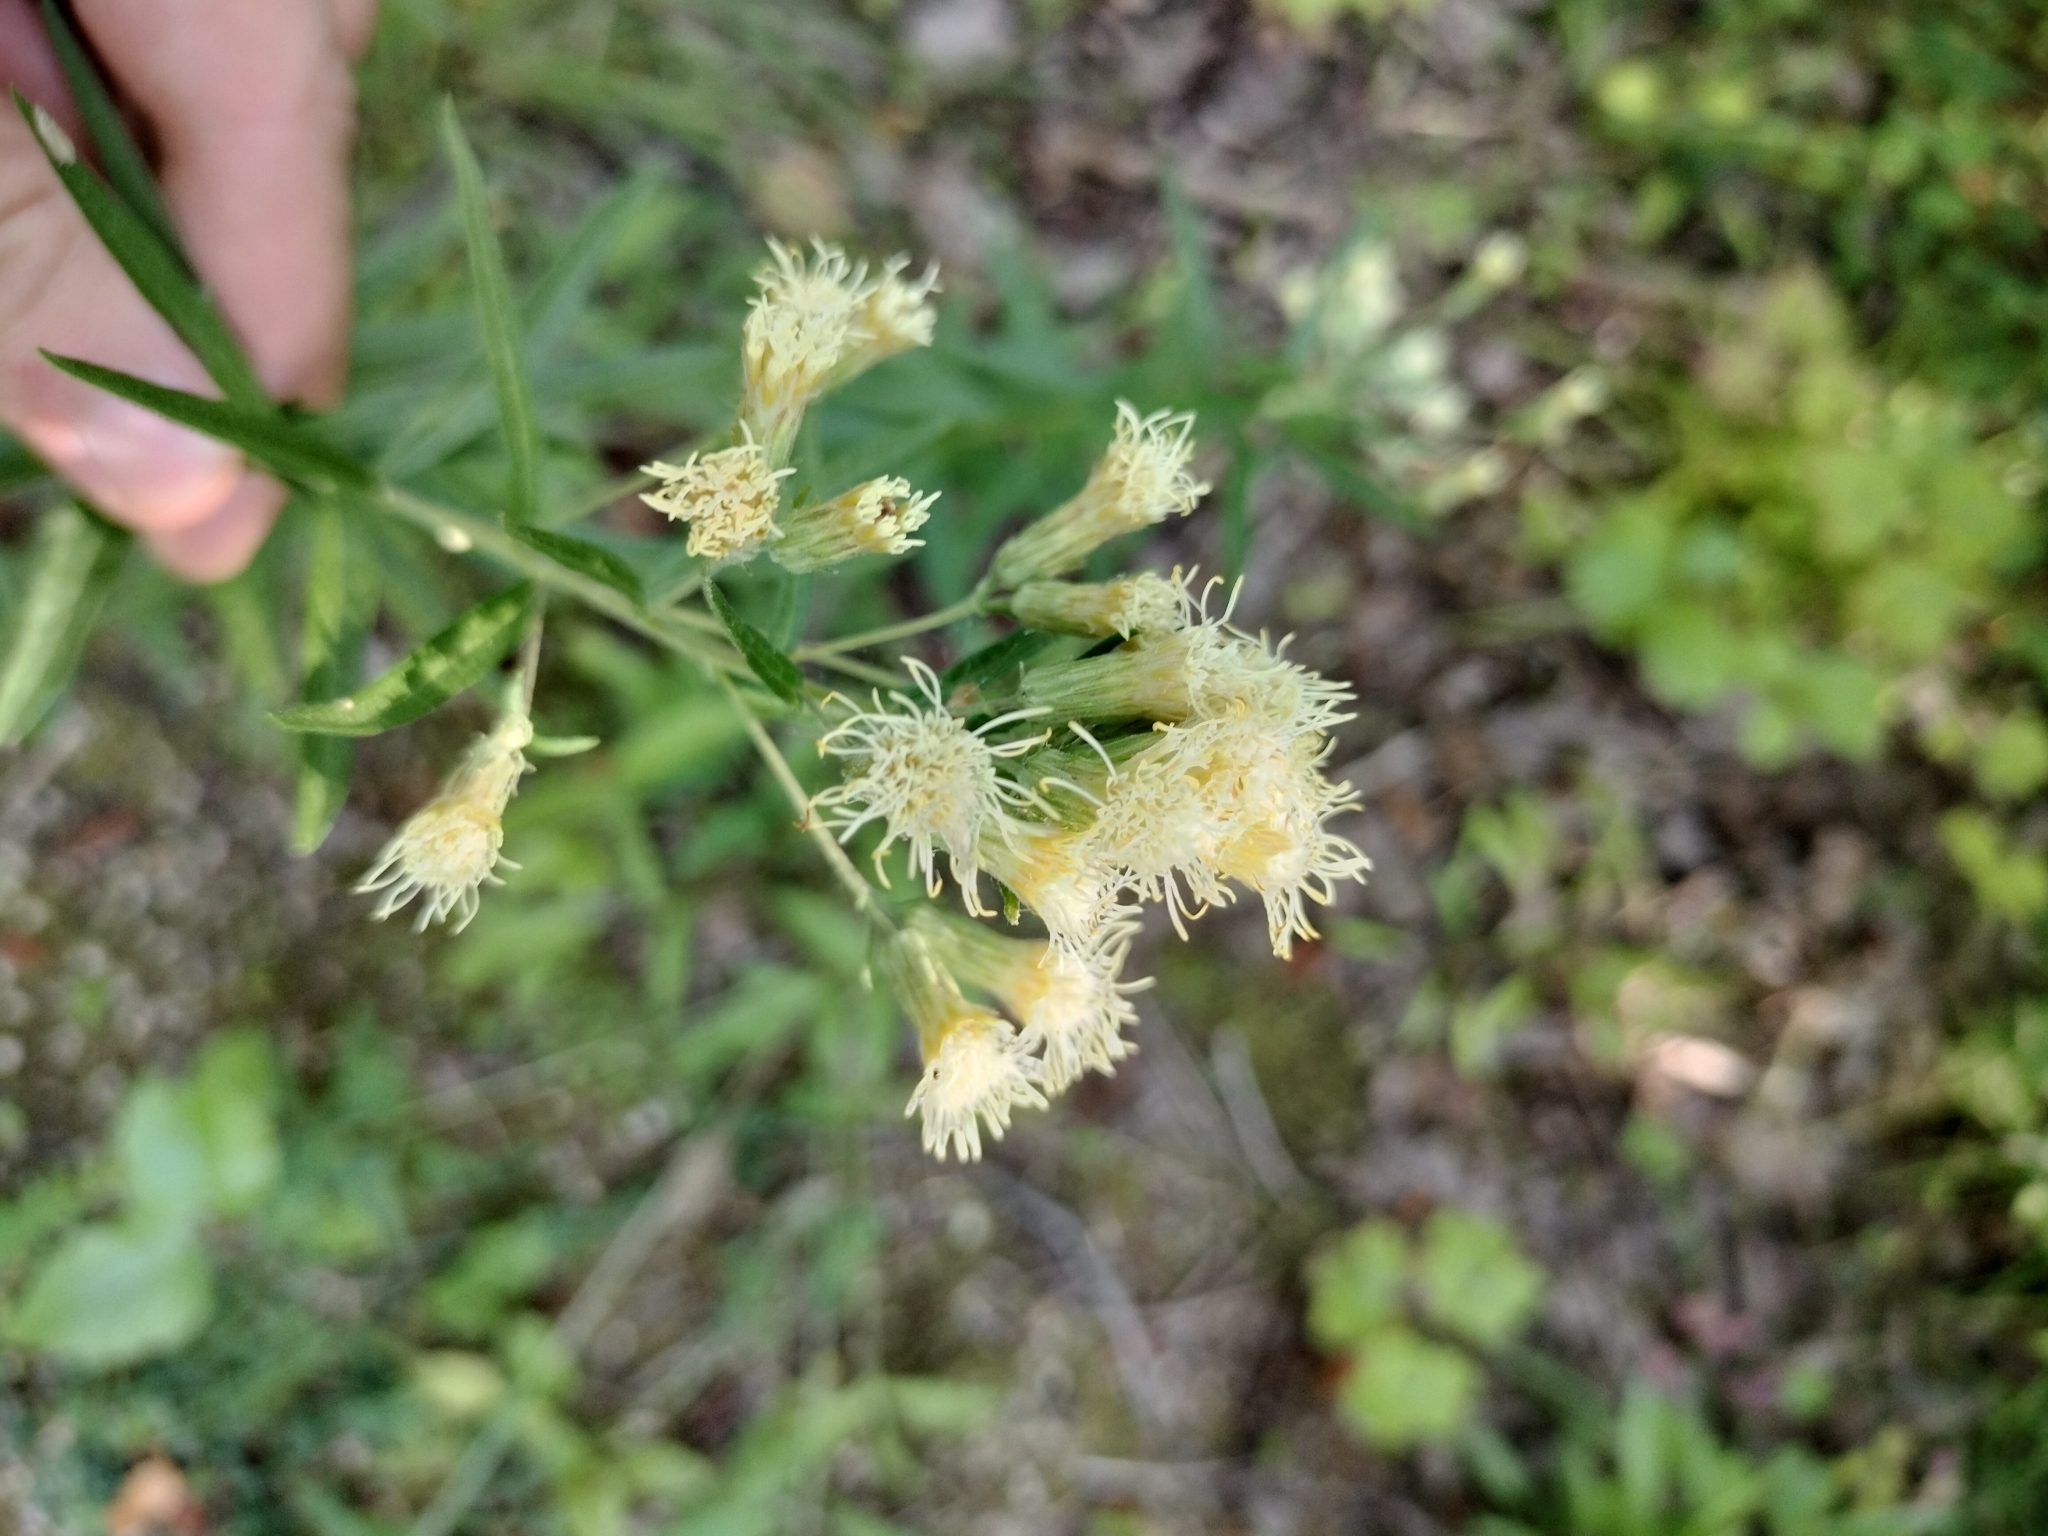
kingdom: Plantae
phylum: Tracheophyta
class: Magnoliopsida
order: Asterales
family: Asteraceae
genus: Brickellia
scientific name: Brickellia eupatorioides
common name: False boneset
